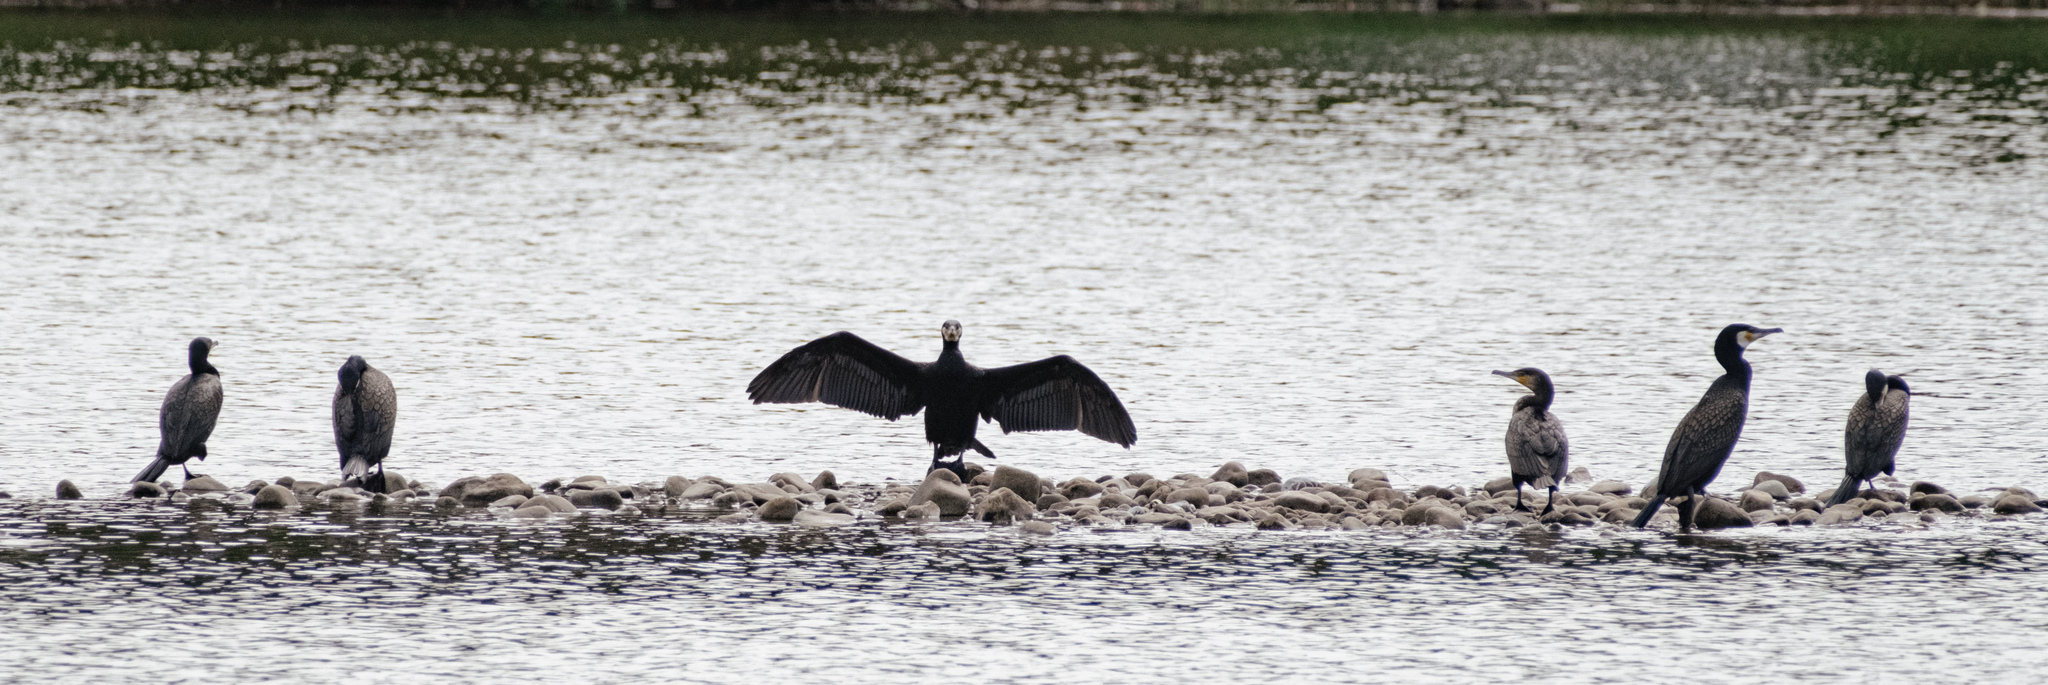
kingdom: Animalia
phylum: Chordata
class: Aves
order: Suliformes
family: Phalacrocoracidae
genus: Phalacrocorax
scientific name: Phalacrocorax carbo
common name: Great cormorant
